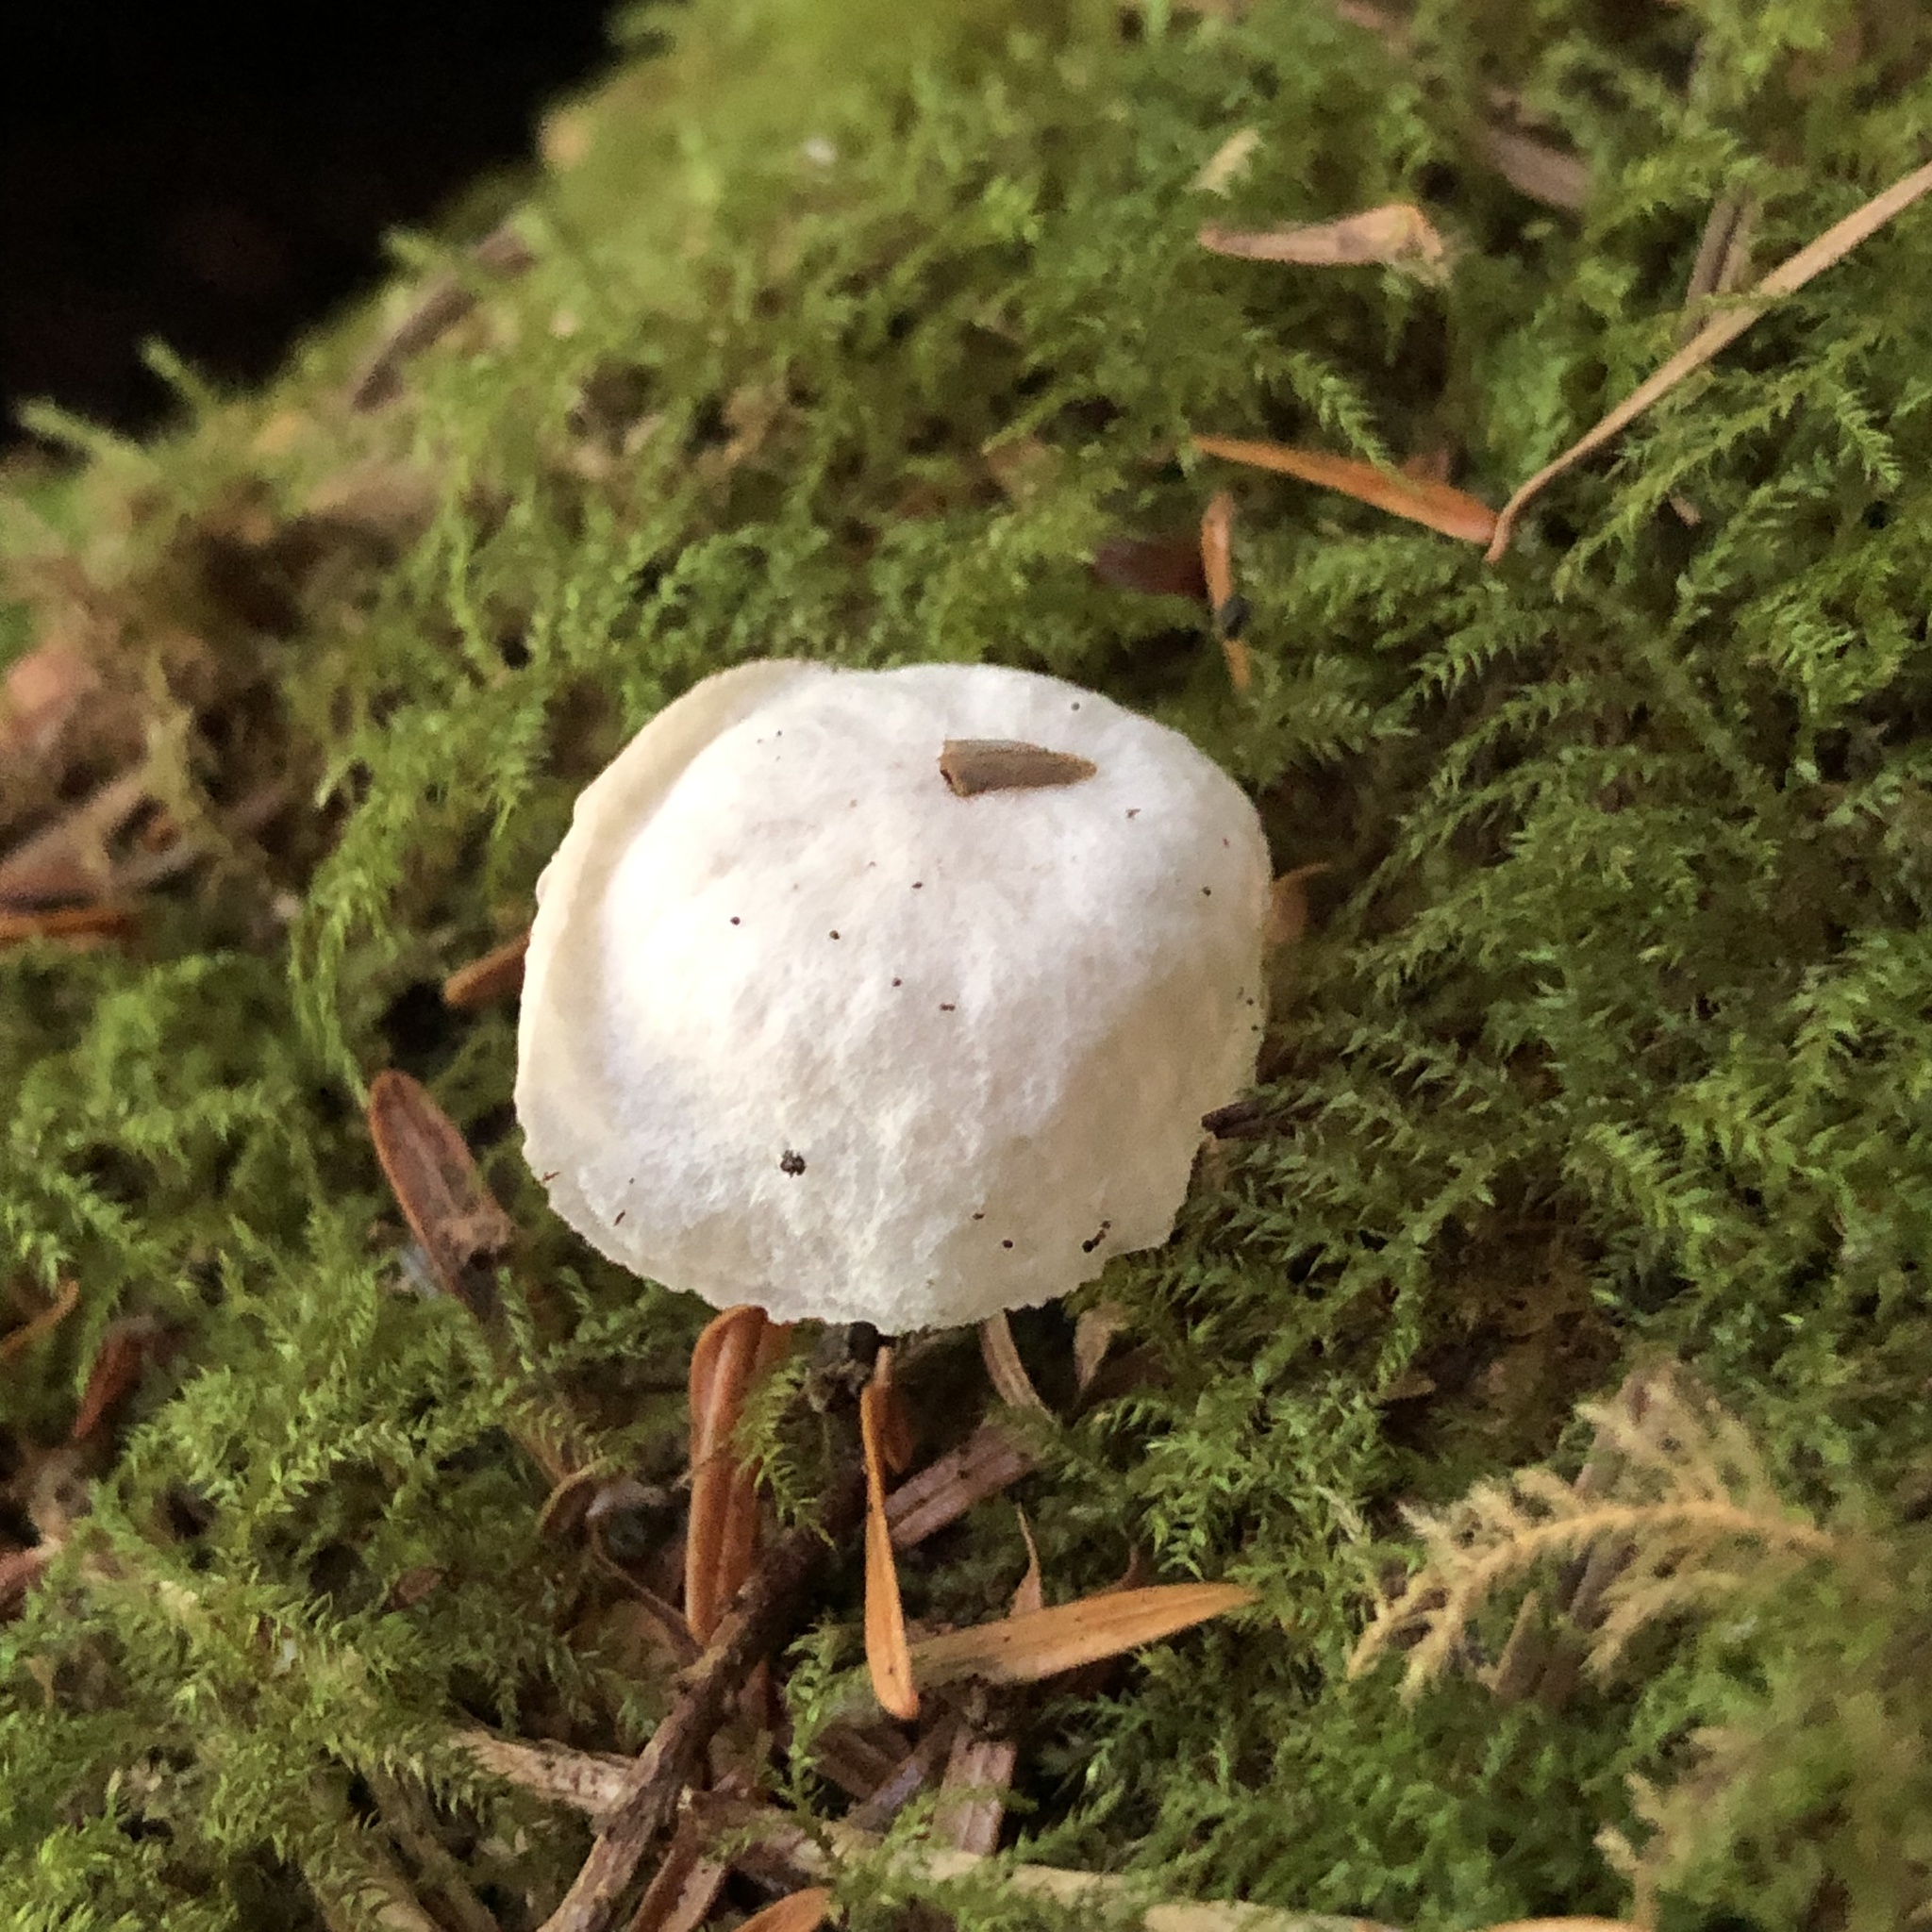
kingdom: Fungi
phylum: Basidiomycota
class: Agaricomycetes
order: Agaricales
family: Omphalotaceae
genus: Marasmiellus
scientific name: Marasmiellus candidus
